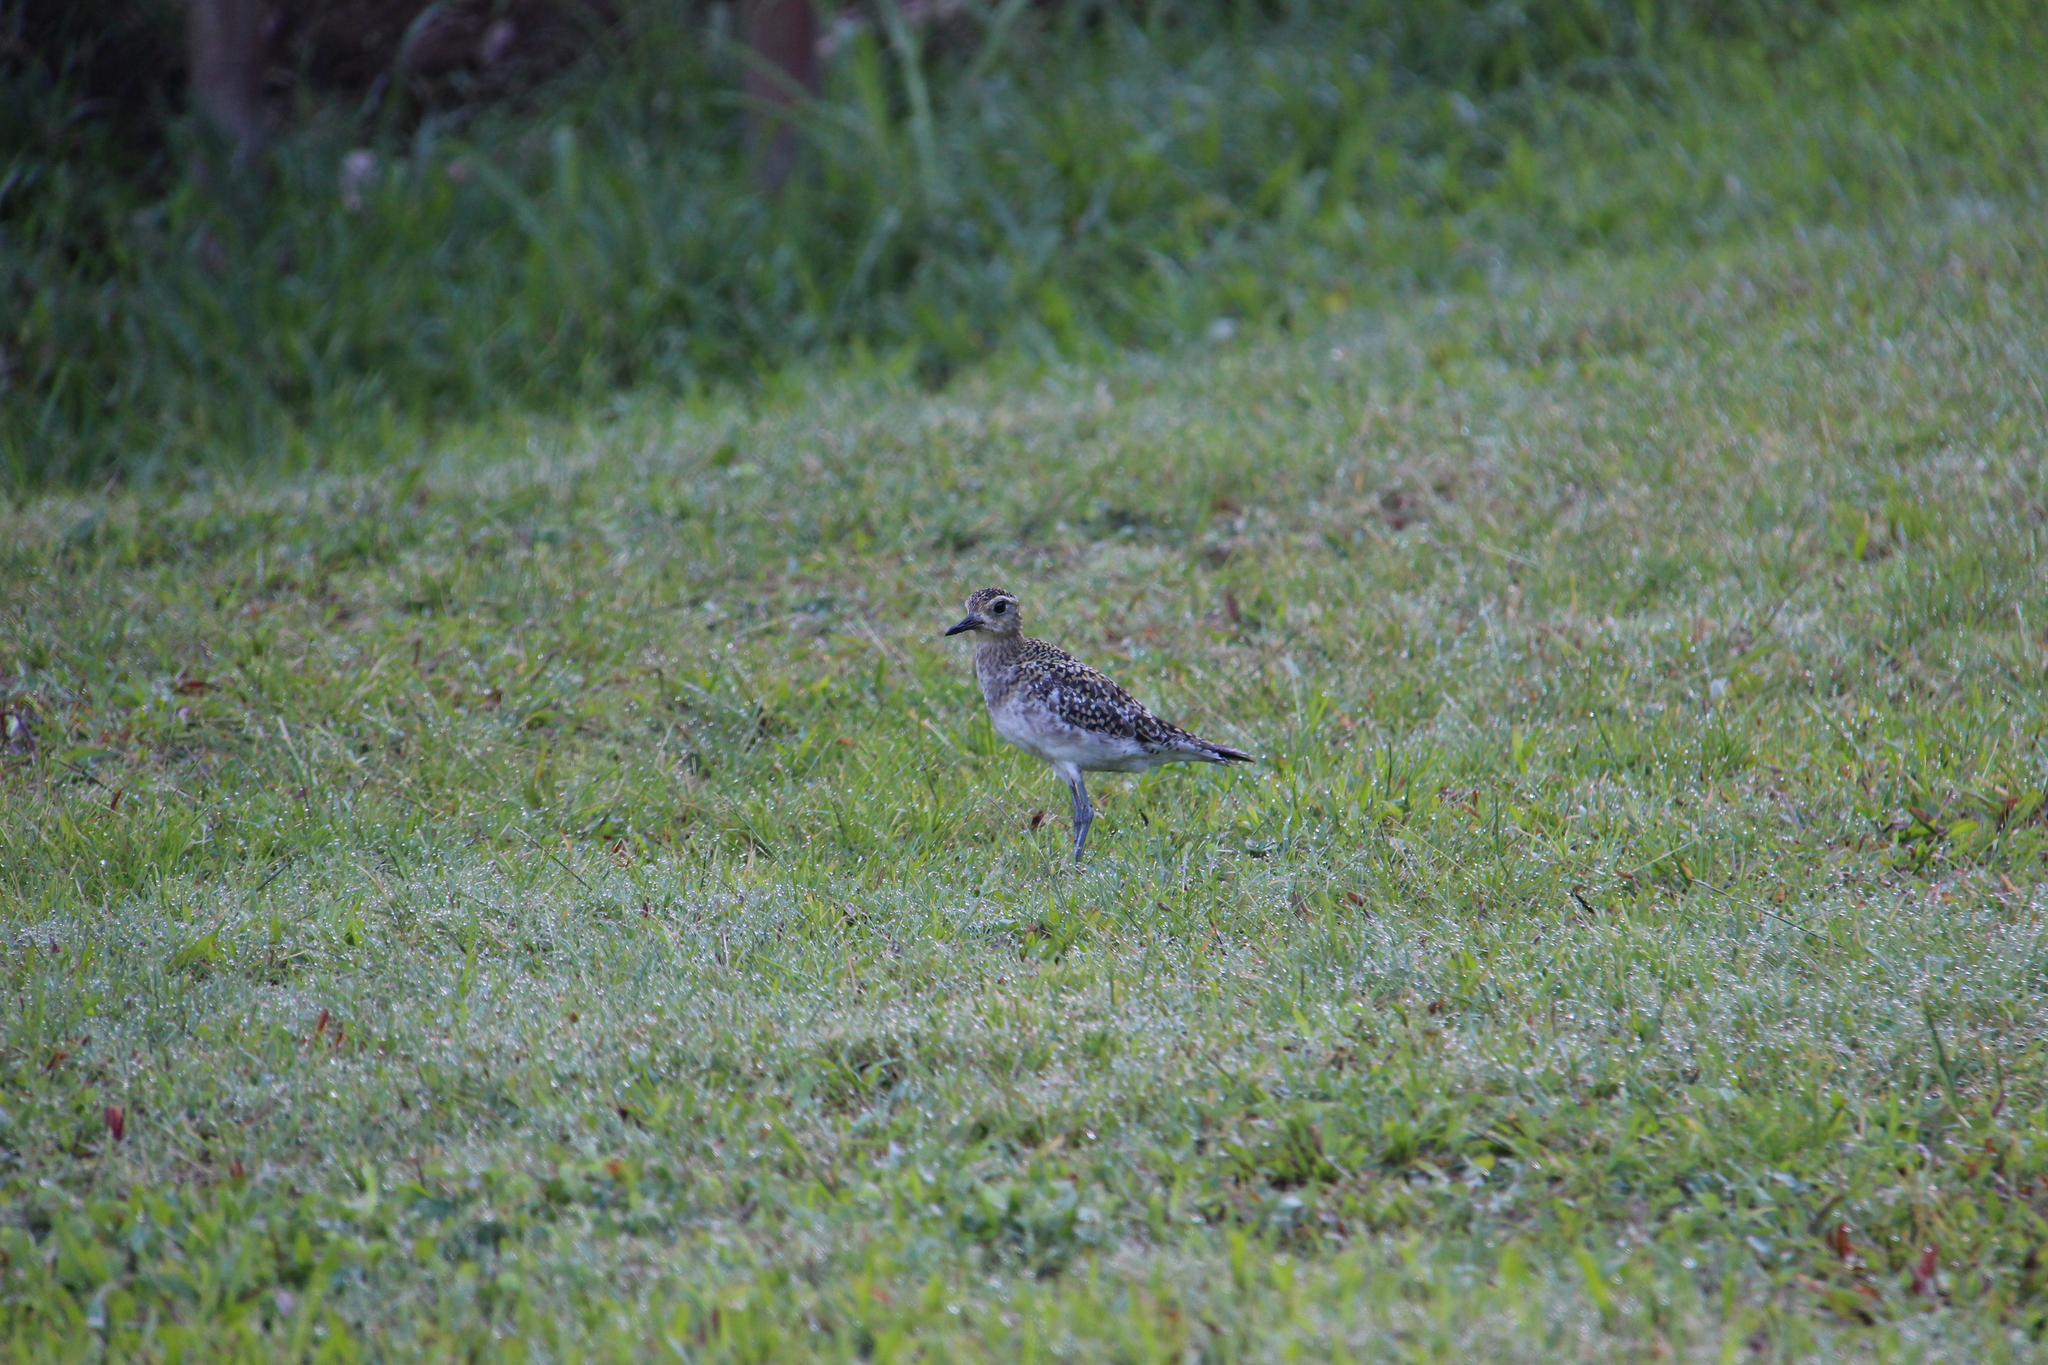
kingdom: Animalia
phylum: Chordata
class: Aves
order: Charadriiformes
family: Charadriidae
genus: Pluvialis
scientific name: Pluvialis fulva
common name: Pacific golden plover
